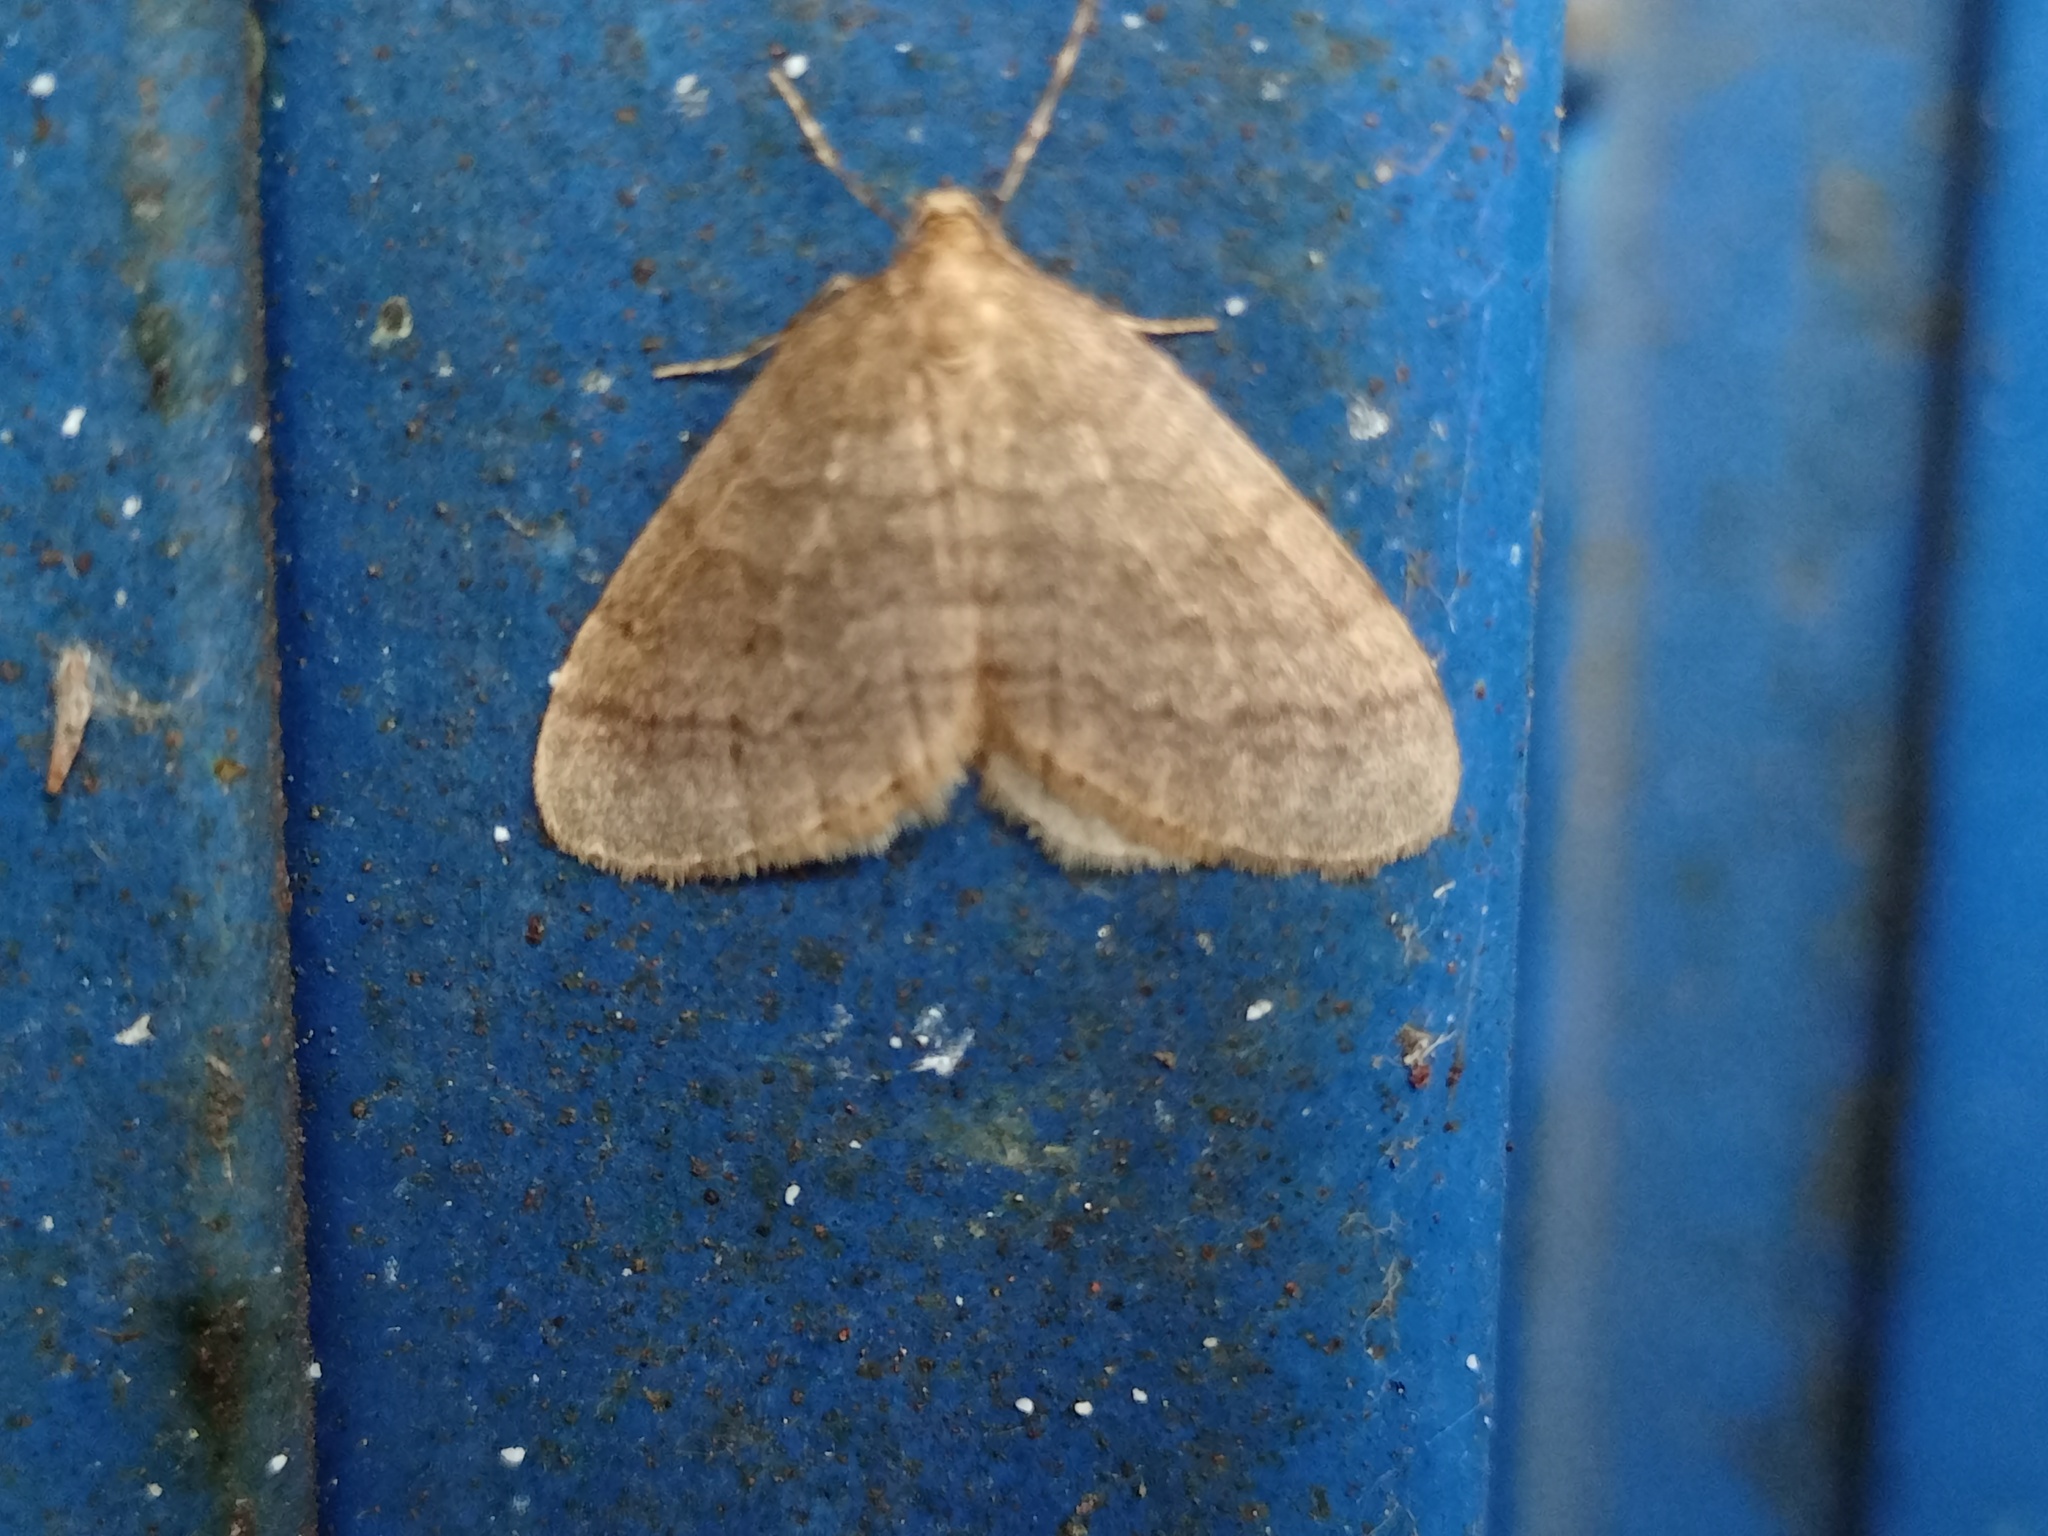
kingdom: Animalia
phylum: Arthropoda
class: Insecta
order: Lepidoptera
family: Geometridae
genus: Operophtera
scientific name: Operophtera brumata
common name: Winter moth
